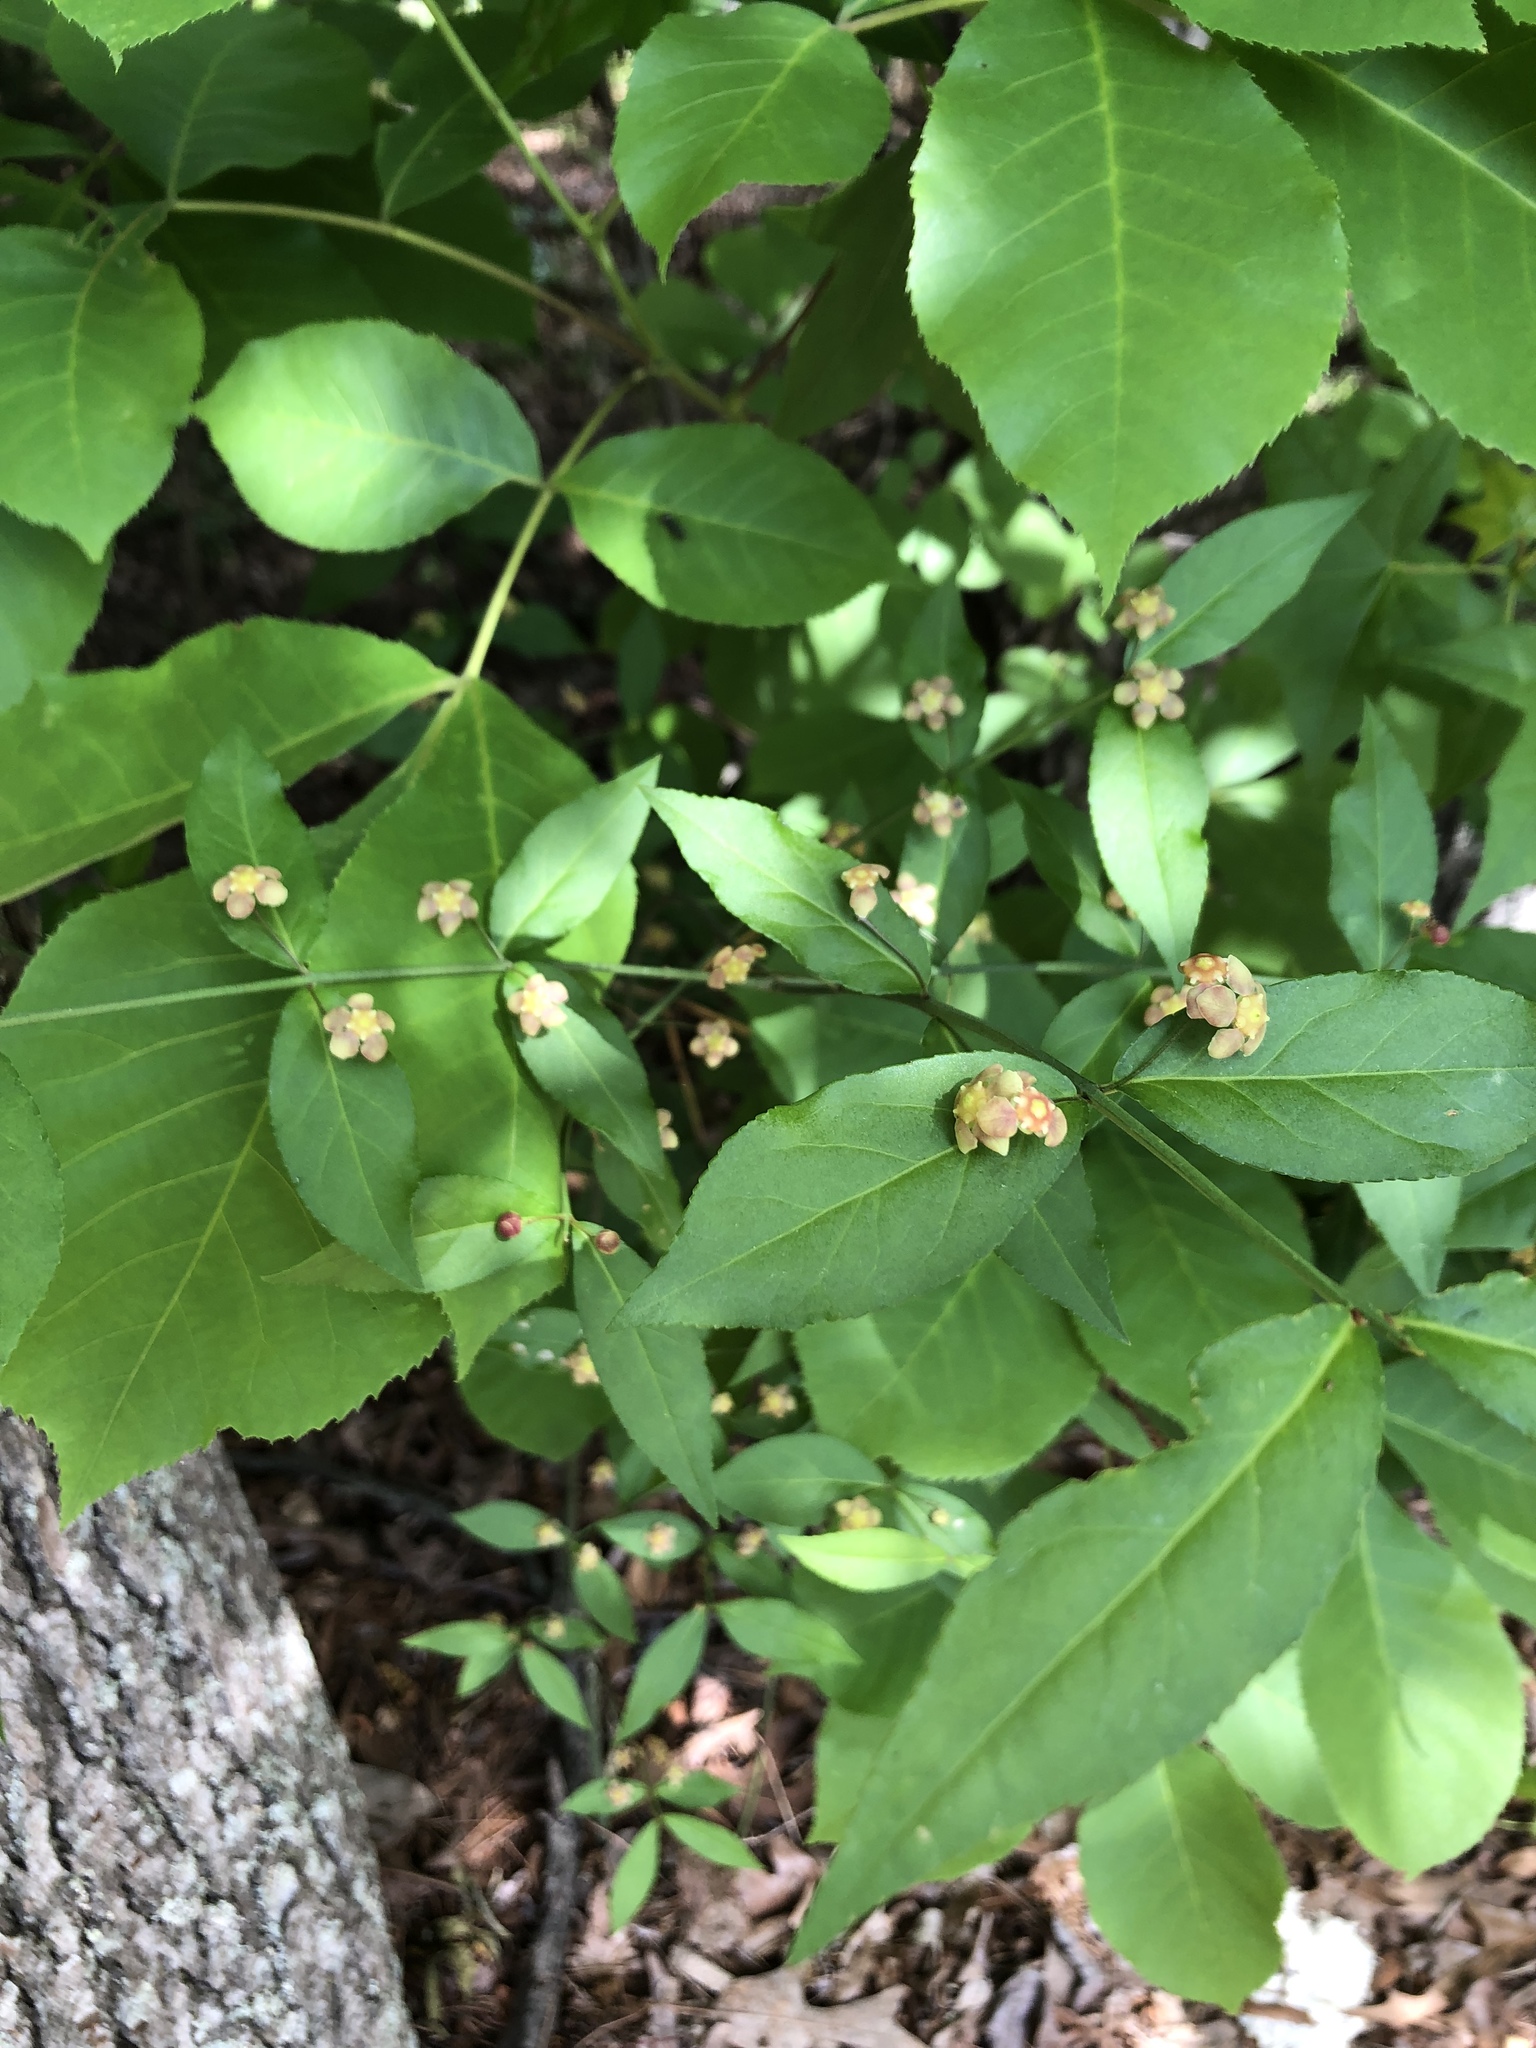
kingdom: Plantae
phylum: Tracheophyta
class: Magnoliopsida
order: Celastrales
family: Celastraceae
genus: Euonymus
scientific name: Euonymus americanus
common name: Bursting-heart
